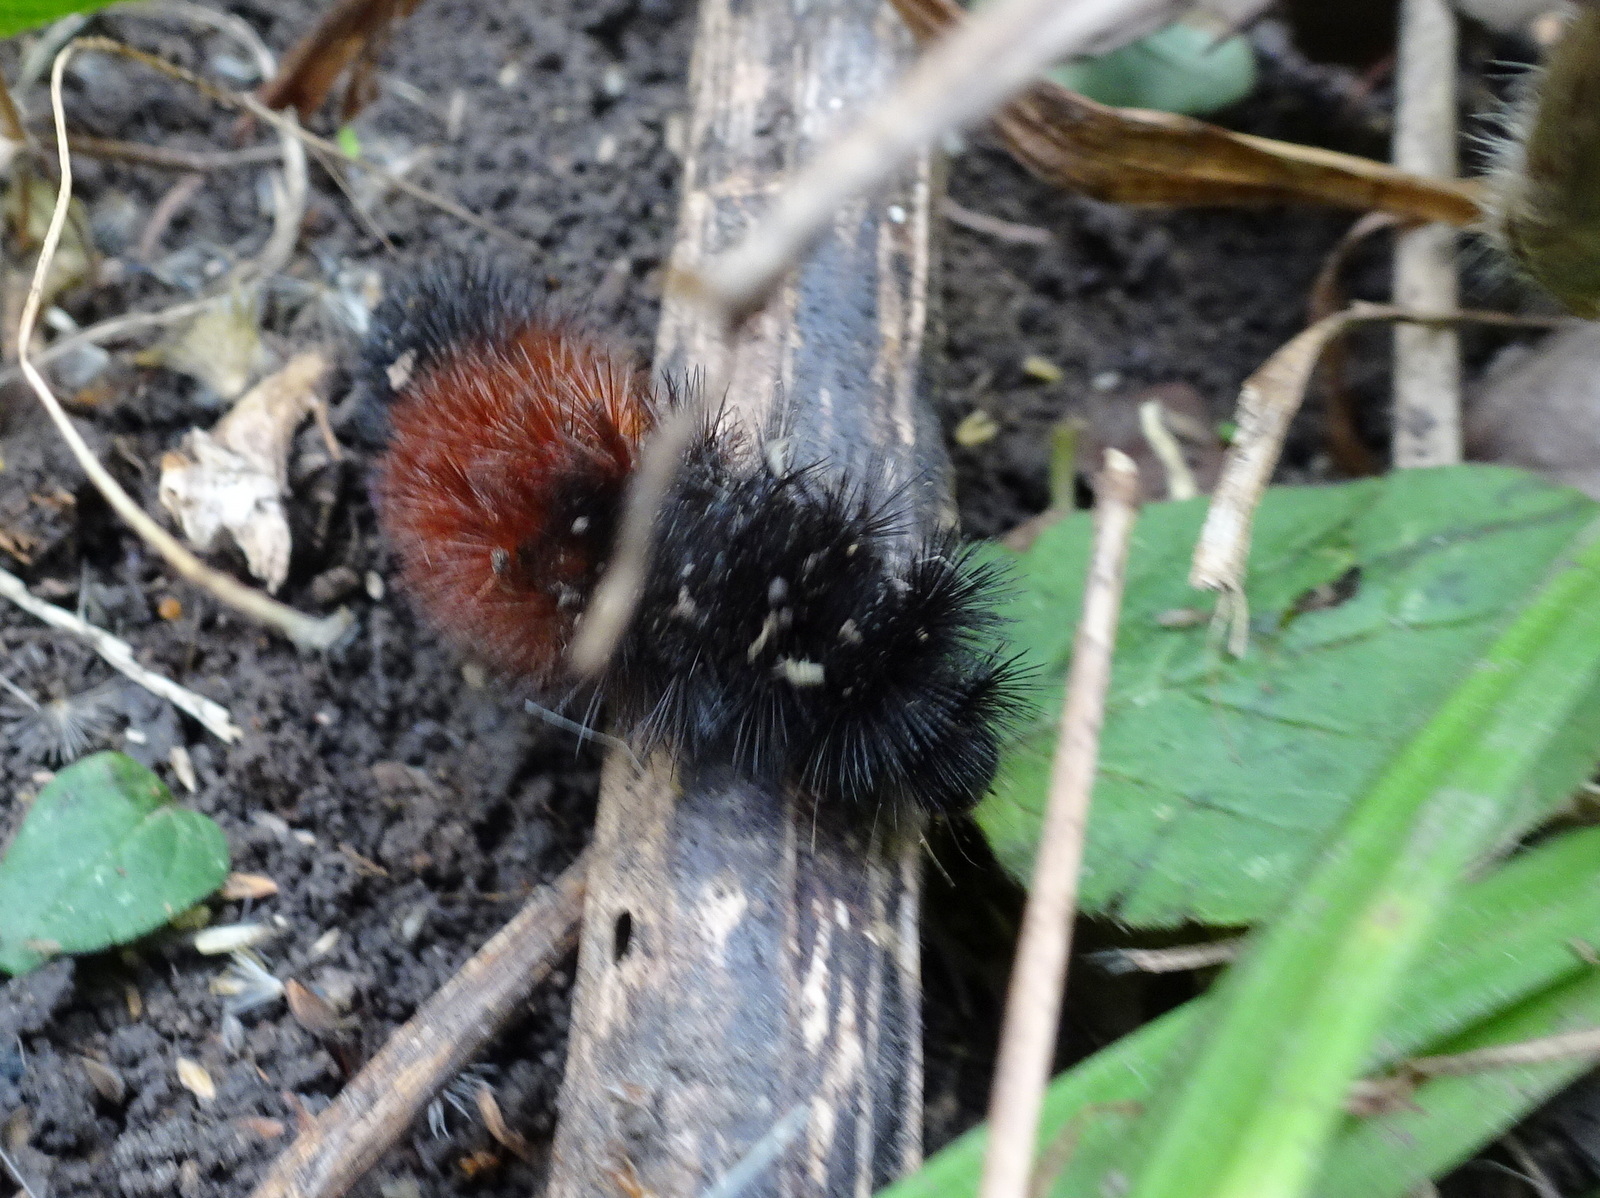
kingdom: Animalia
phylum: Arthropoda
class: Insecta
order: Lepidoptera
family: Erebidae
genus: Pyrrharctia
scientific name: Pyrrharctia isabella
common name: Isabella tiger moth
